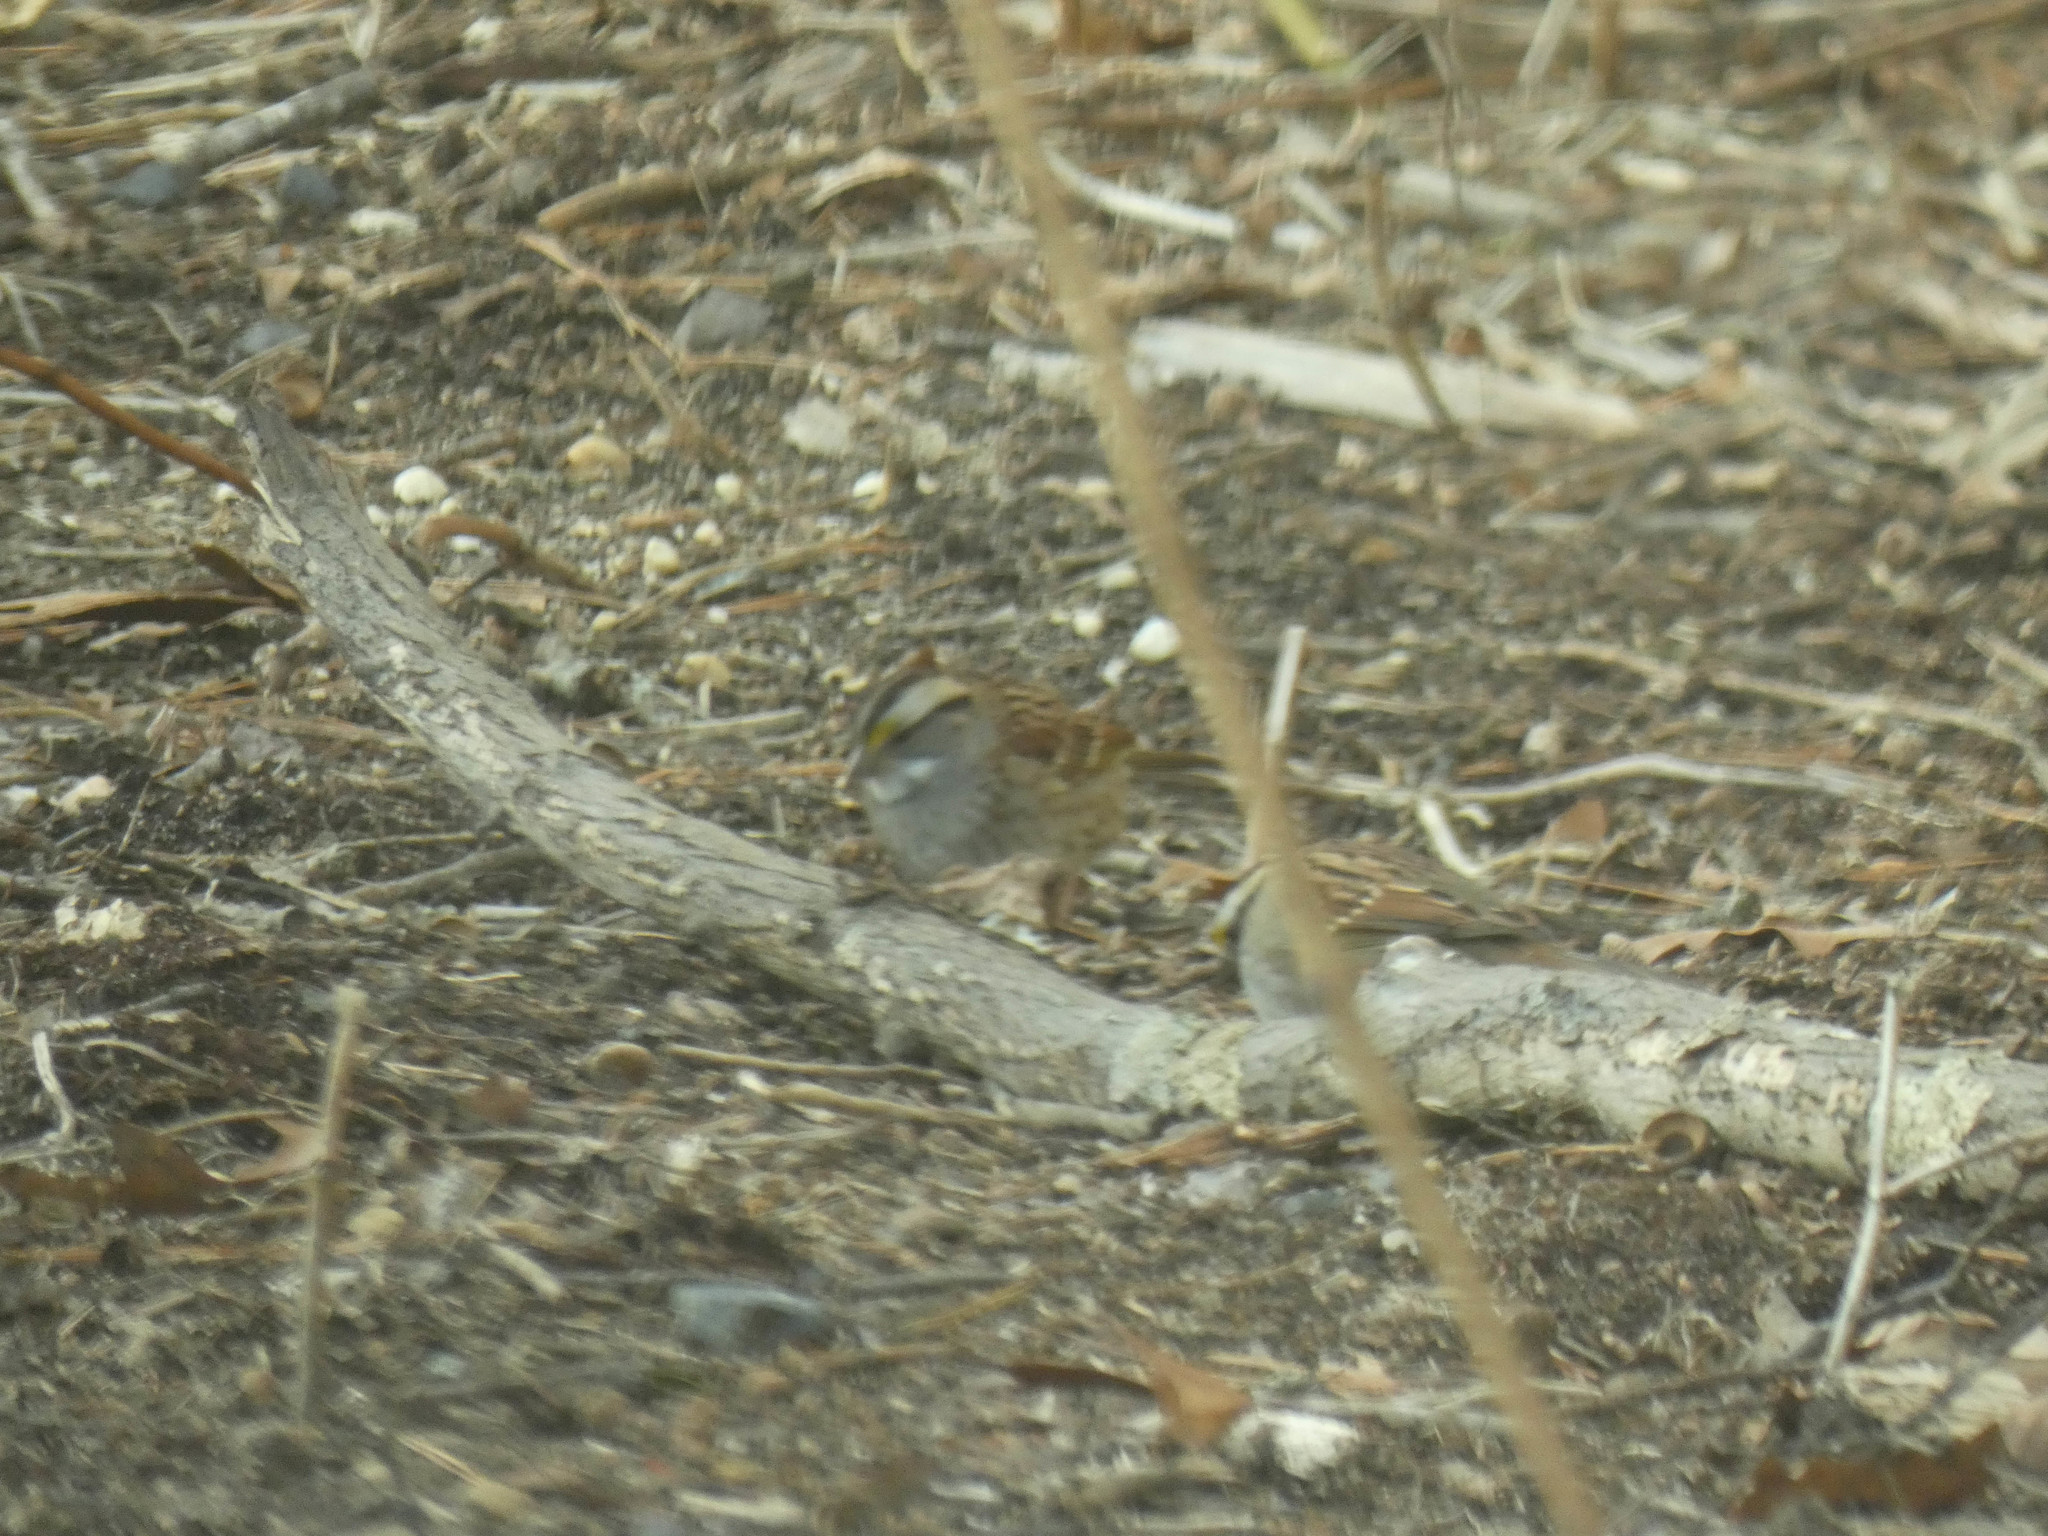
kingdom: Animalia
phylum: Chordata
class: Aves
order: Passeriformes
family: Passerellidae
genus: Zonotrichia
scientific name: Zonotrichia albicollis
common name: White-throated sparrow
